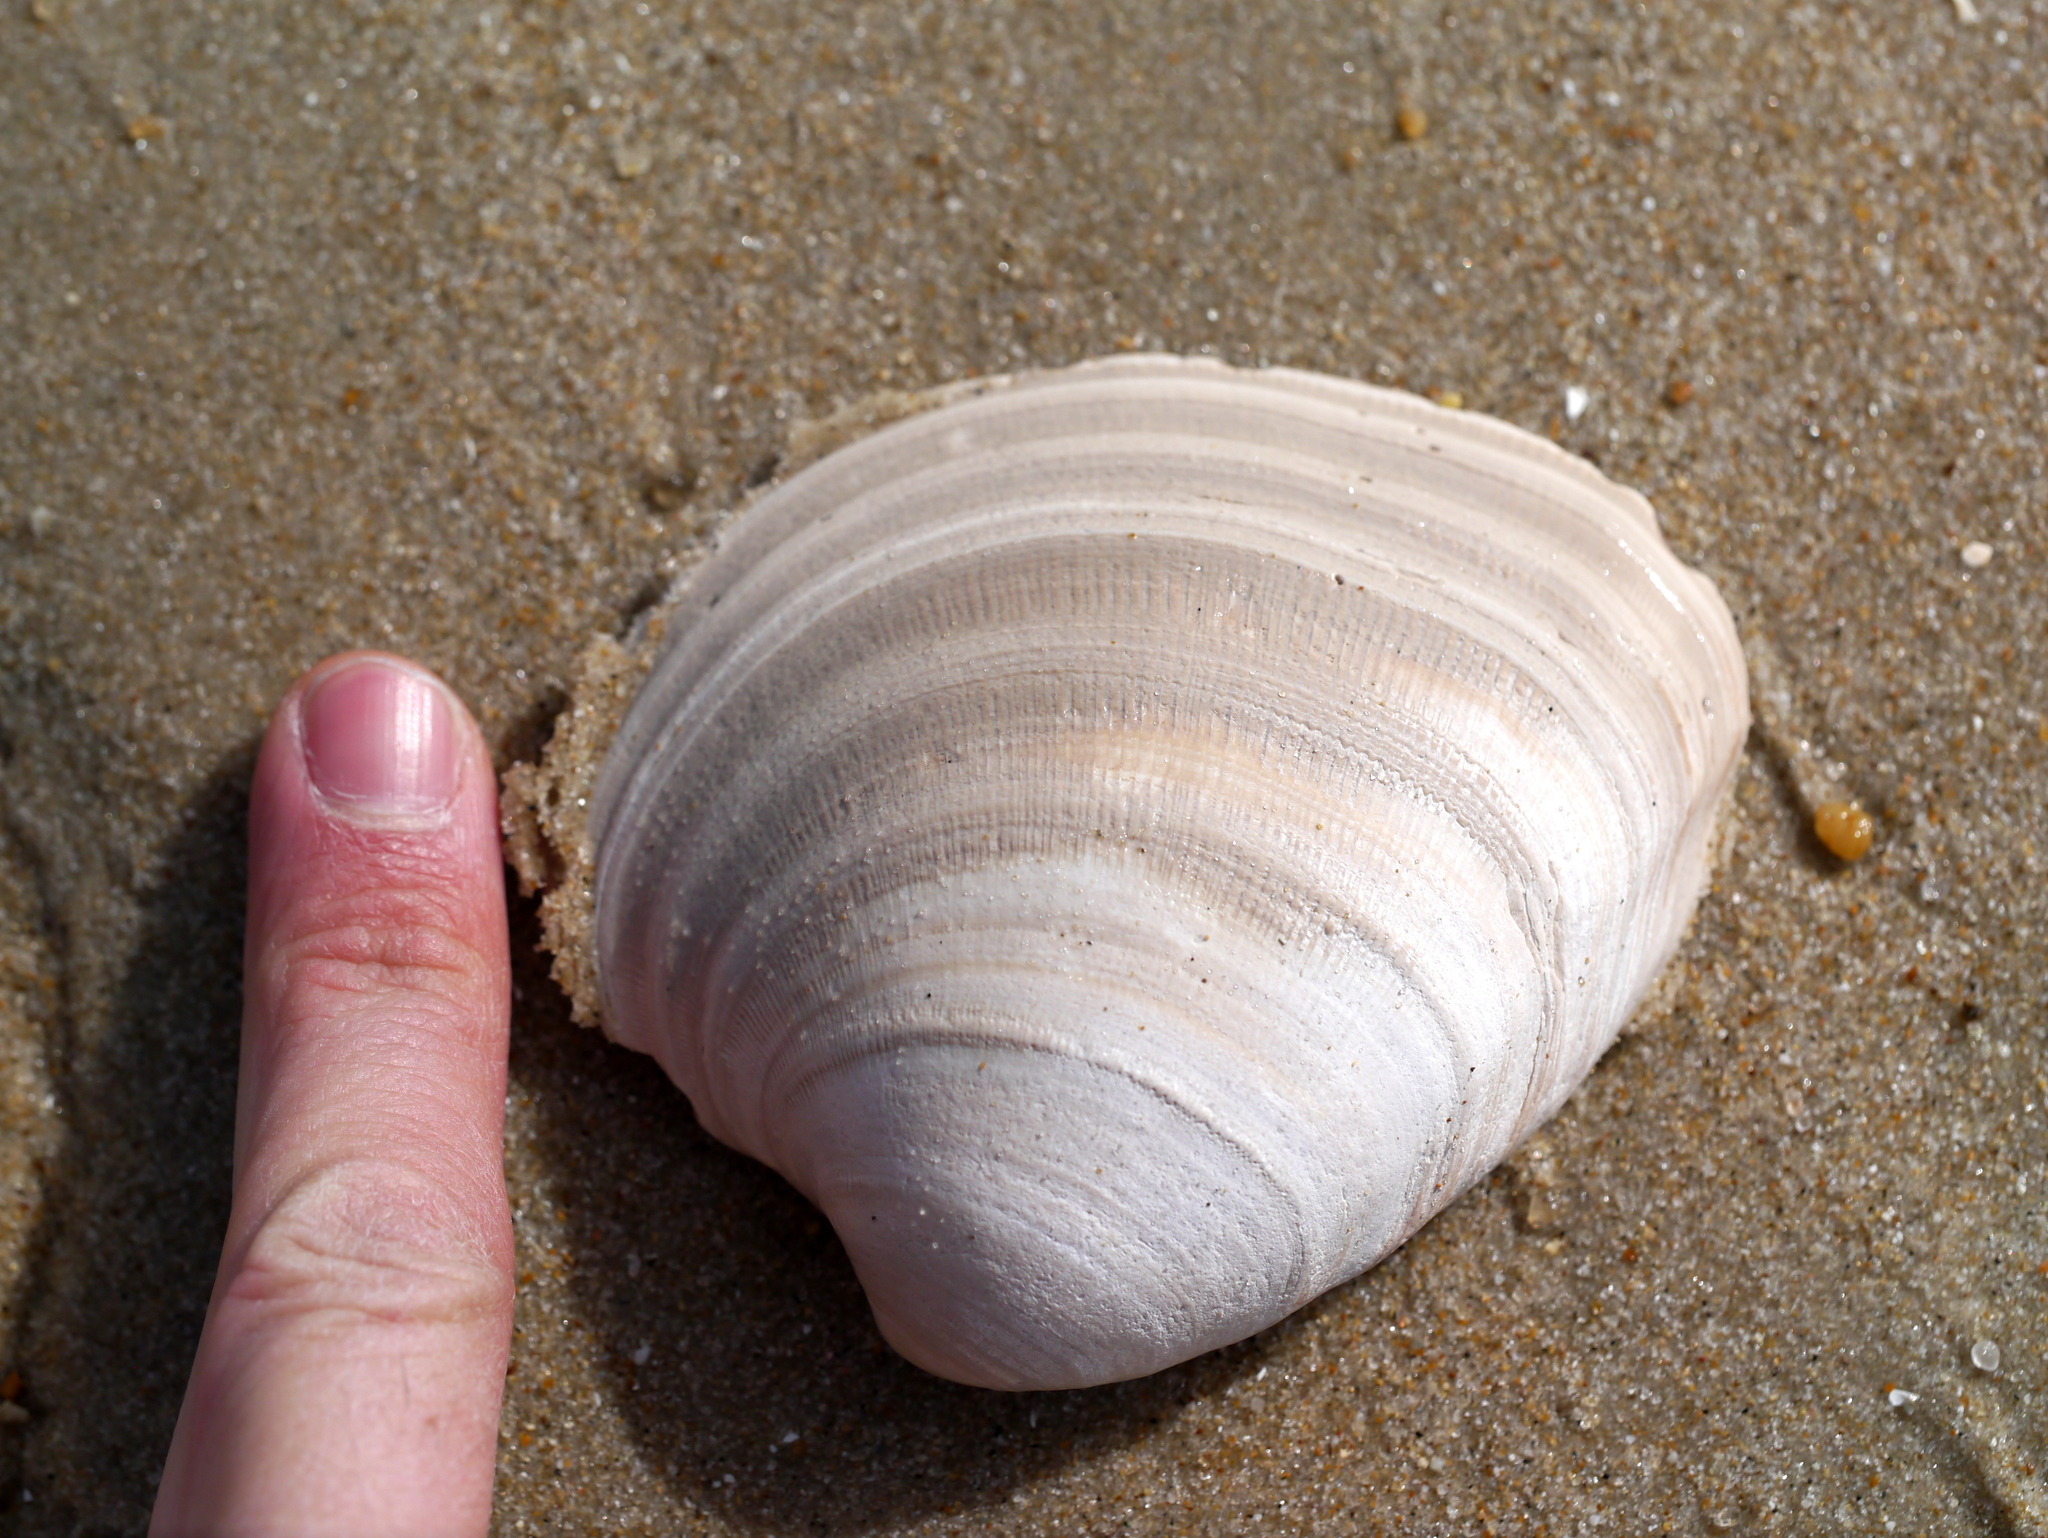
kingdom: Animalia
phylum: Mollusca
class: Bivalvia
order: Venerida
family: Veneridae
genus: Mercenaria
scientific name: Mercenaria mercenaria
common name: American hard-shelled clam
